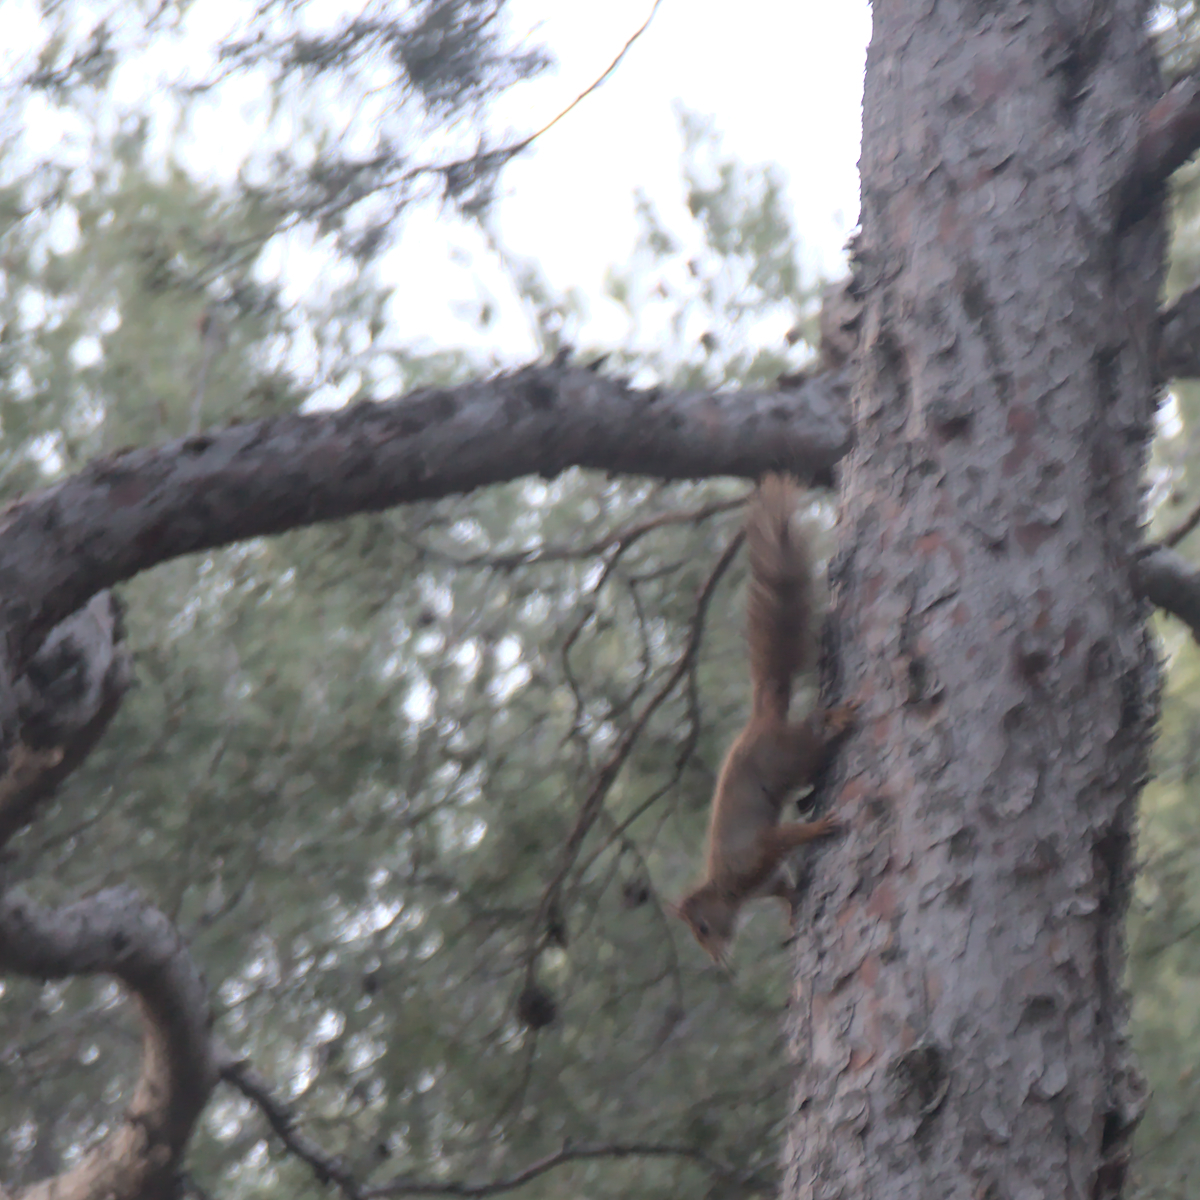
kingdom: Animalia
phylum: Chordata
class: Mammalia
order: Rodentia
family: Sciuridae
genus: Sciurus
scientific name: Sciurus vulgaris
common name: Eurasian red squirrel
